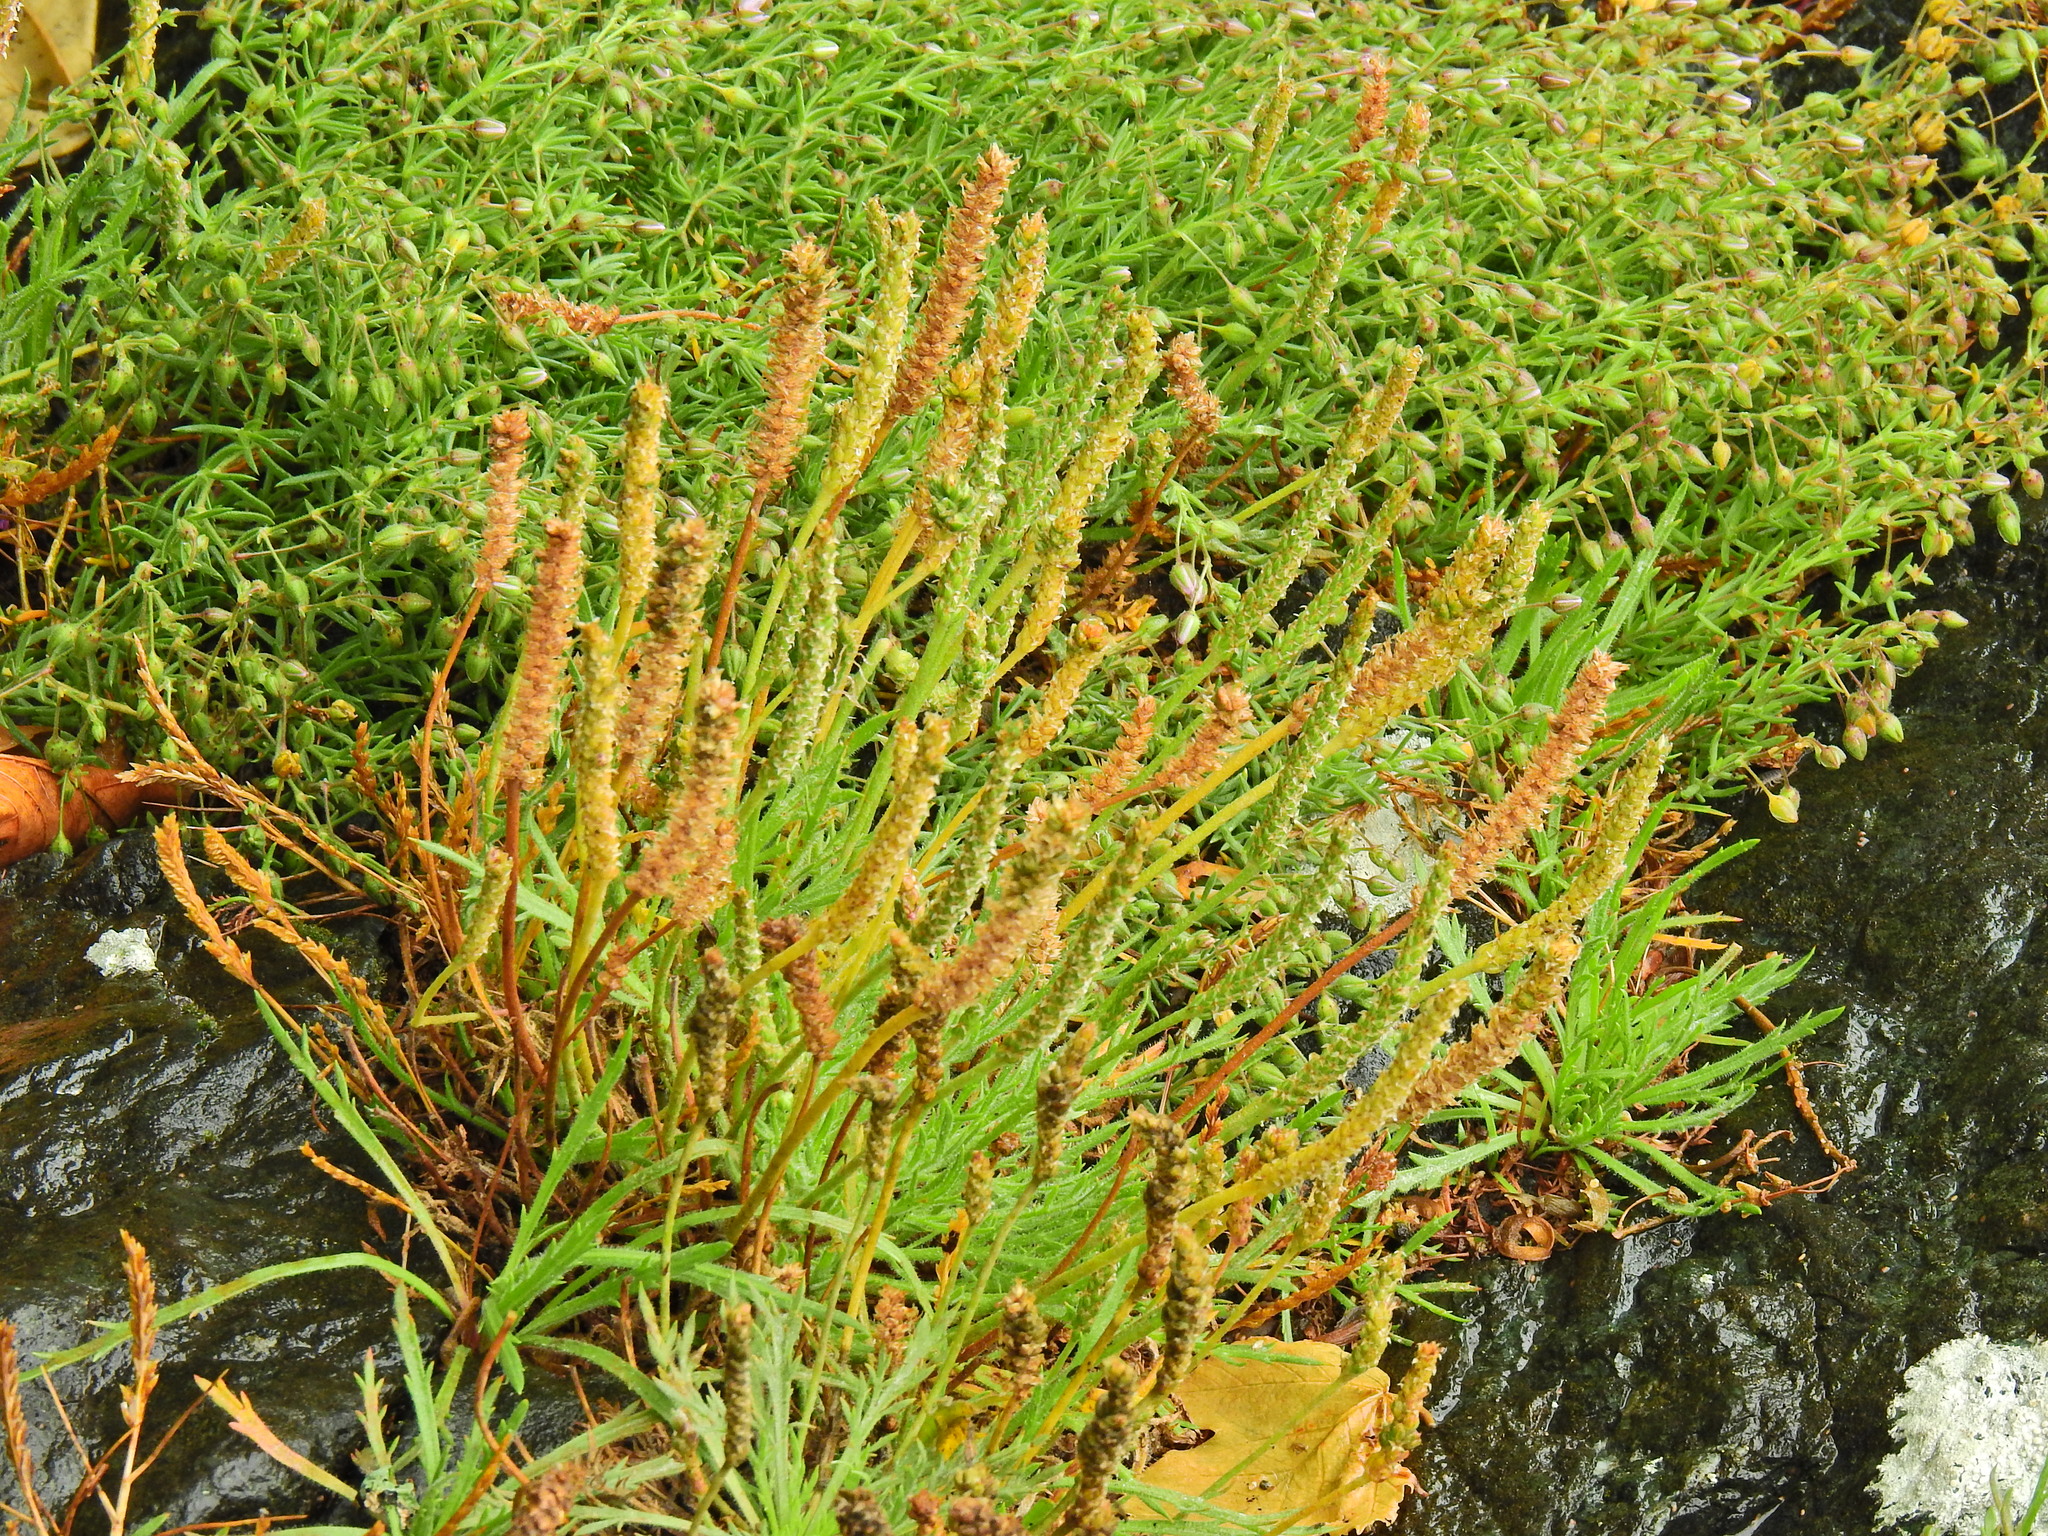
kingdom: Plantae
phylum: Tracheophyta
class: Magnoliopsida
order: Lamiales
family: Plantaginaceae
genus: Plantago
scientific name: Plantago maritima
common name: Sea plantain
